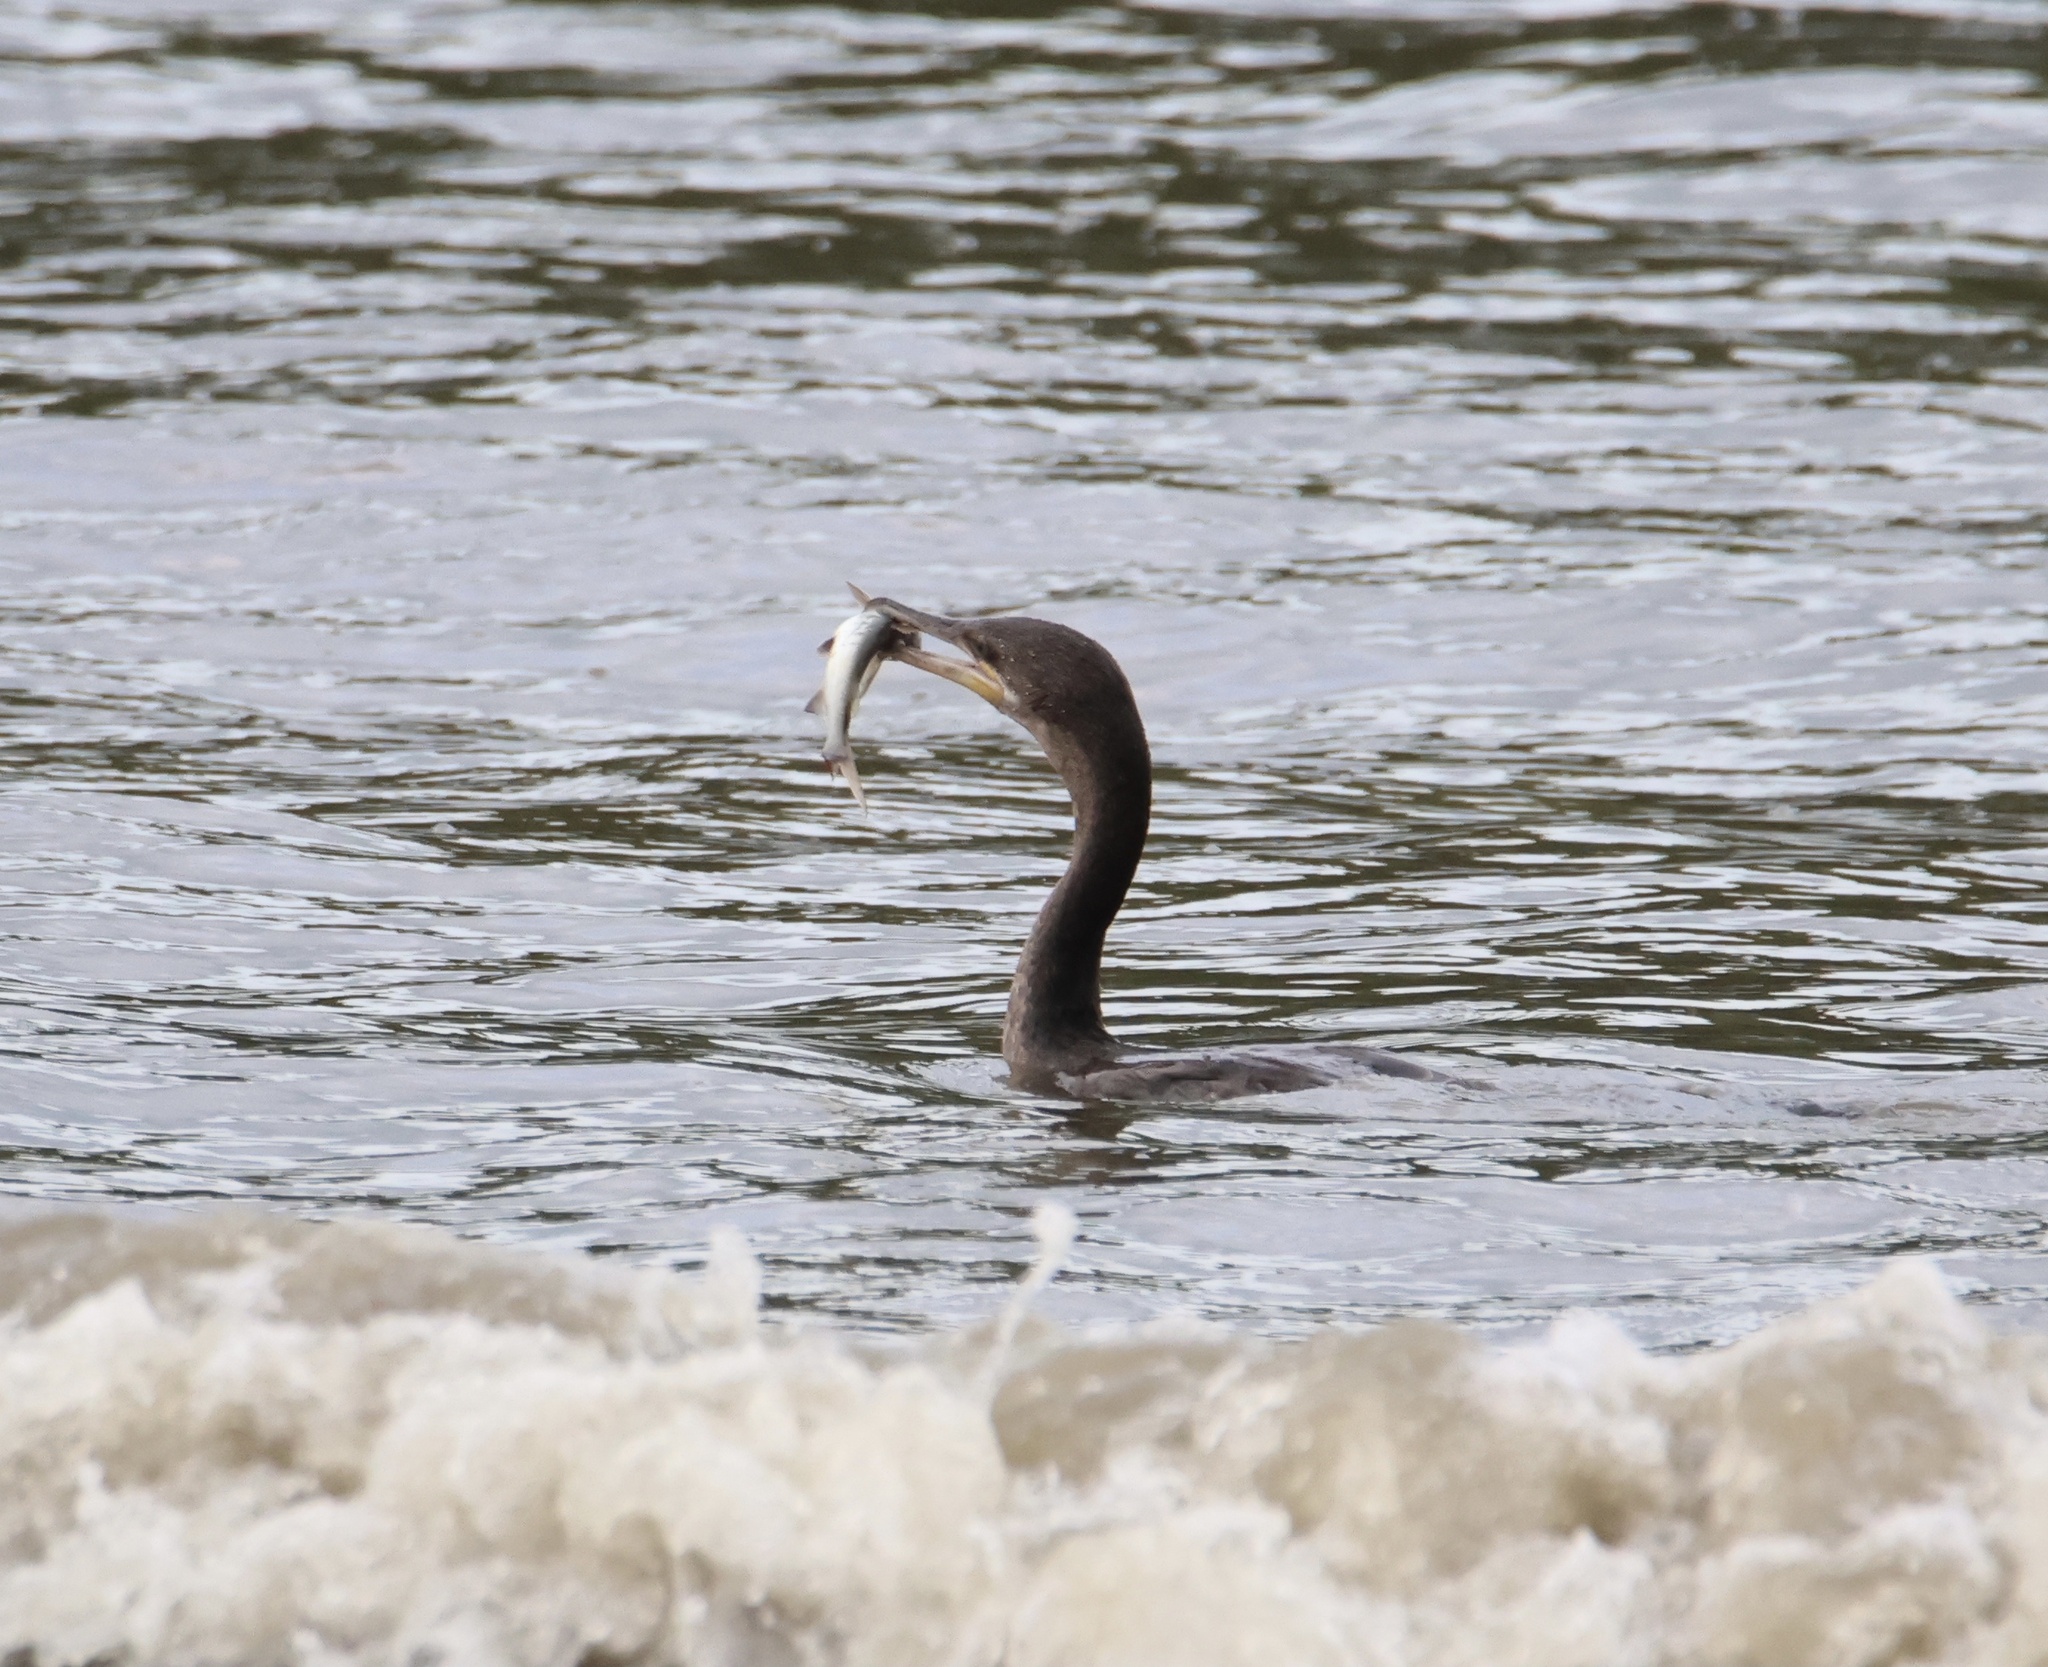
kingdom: Animalia
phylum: Chordata
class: Aves
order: Suliformes
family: Phalacrocoracidae
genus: Phalacrocorax
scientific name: Phalacrocorax brasilianus
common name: Neotropic cormorant
